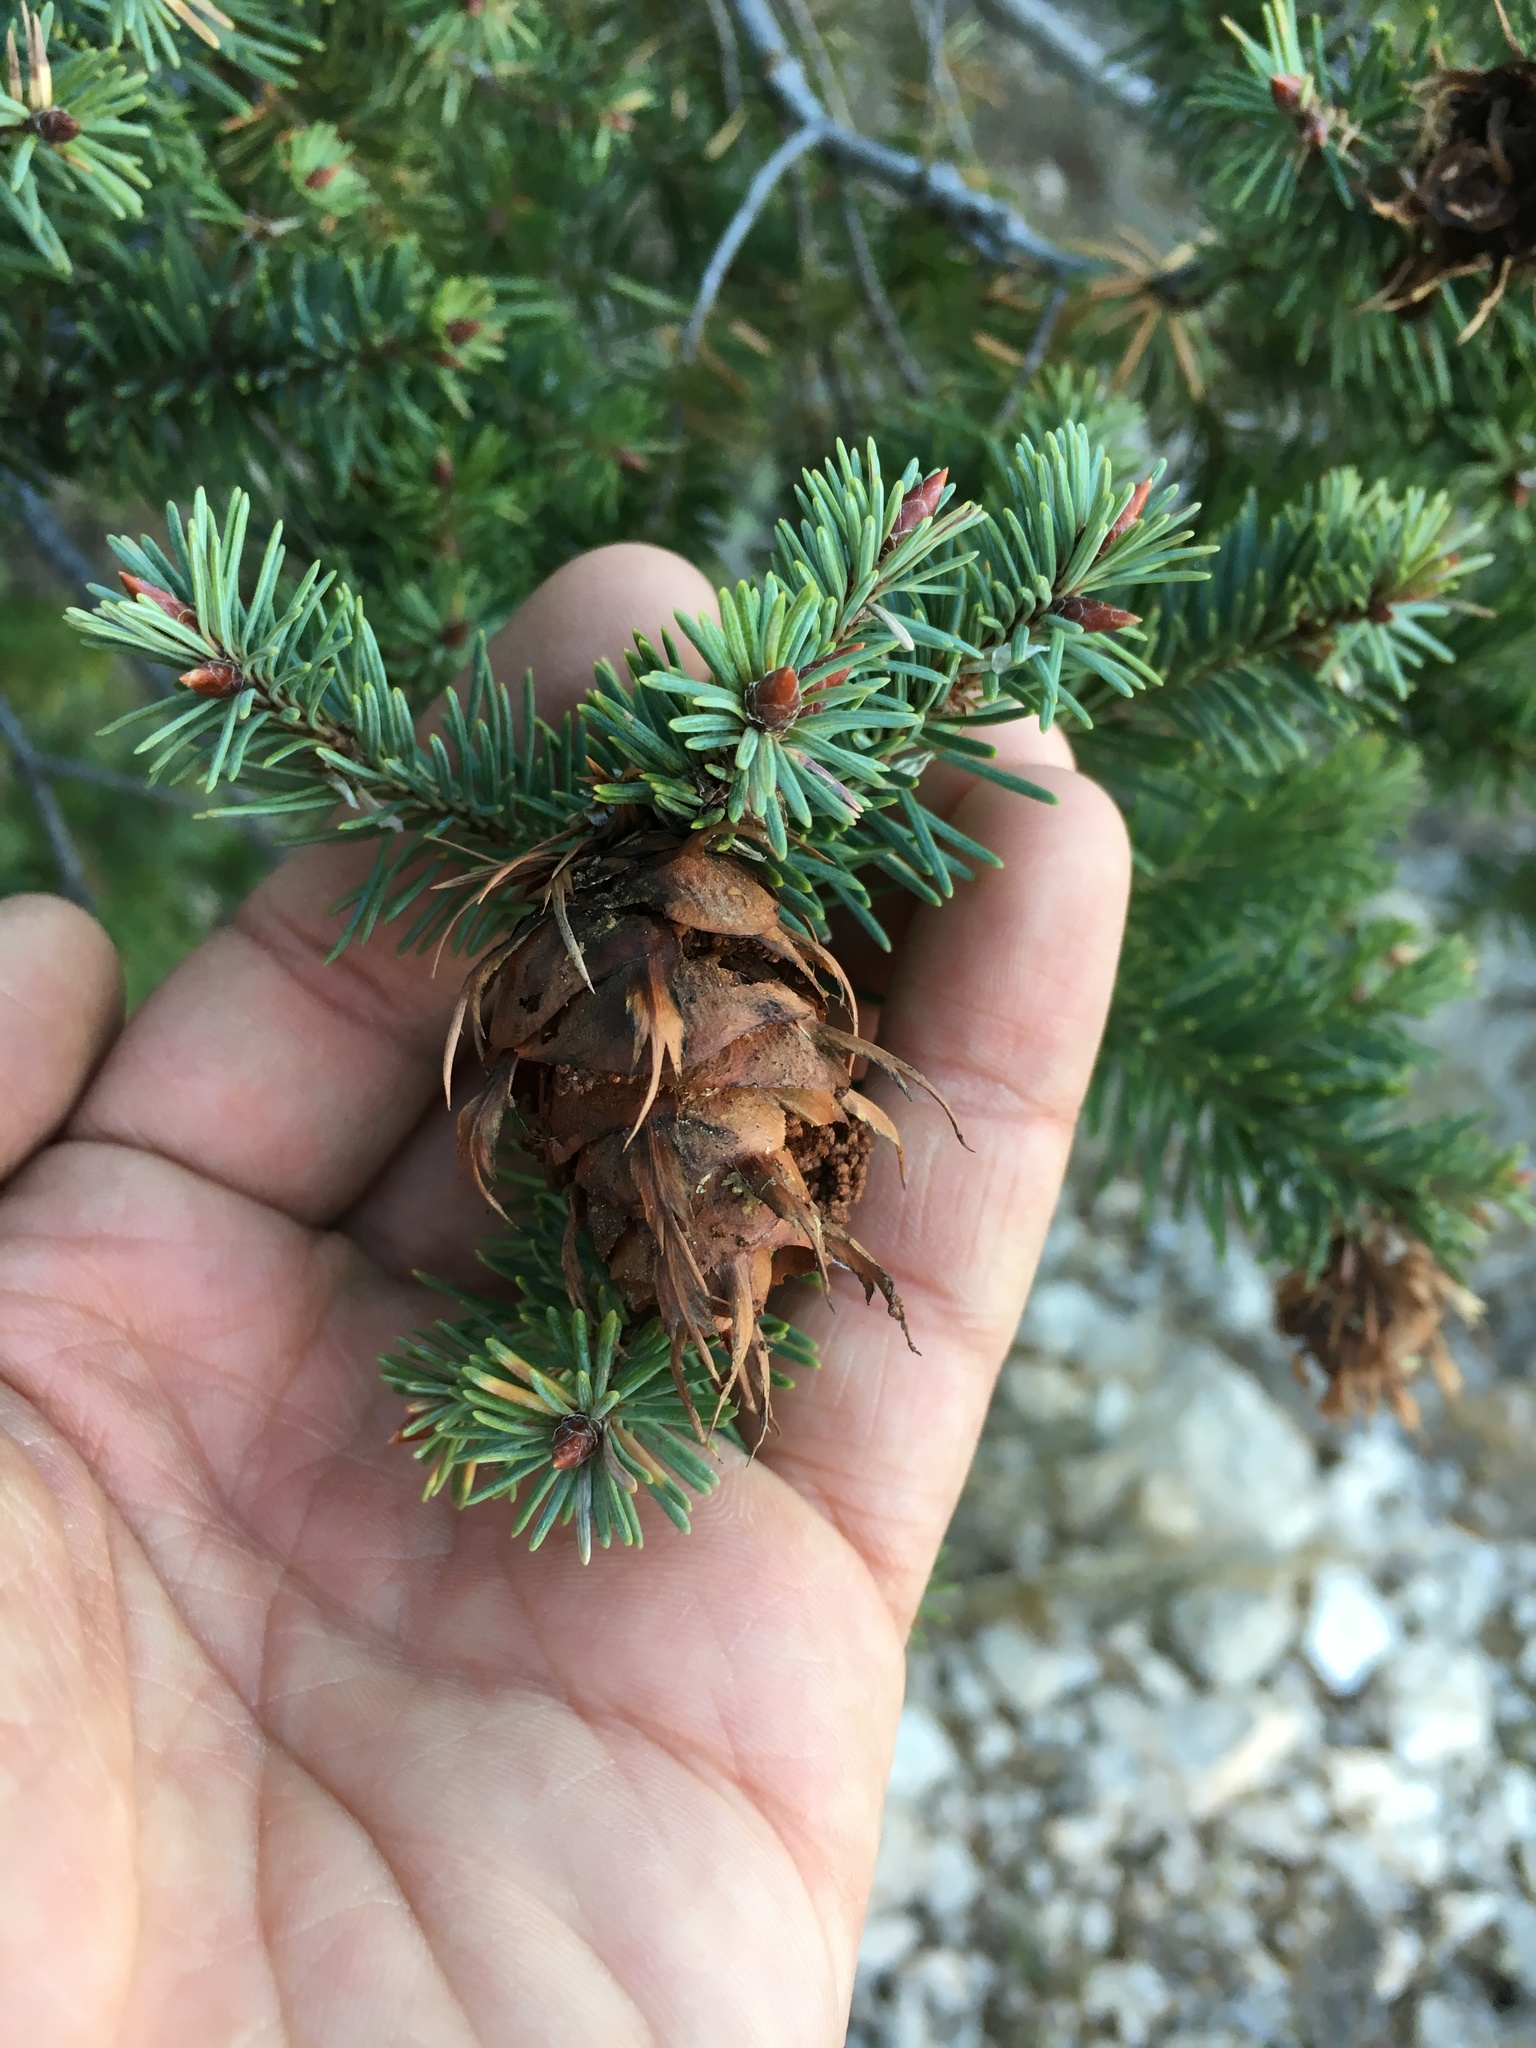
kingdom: Plantae
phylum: Tracheophyta
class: Pinopsida
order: Pinales
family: Pinaceae
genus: Pseudotsuga
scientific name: Pseudotsuga menziesii
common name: Douglas fir
